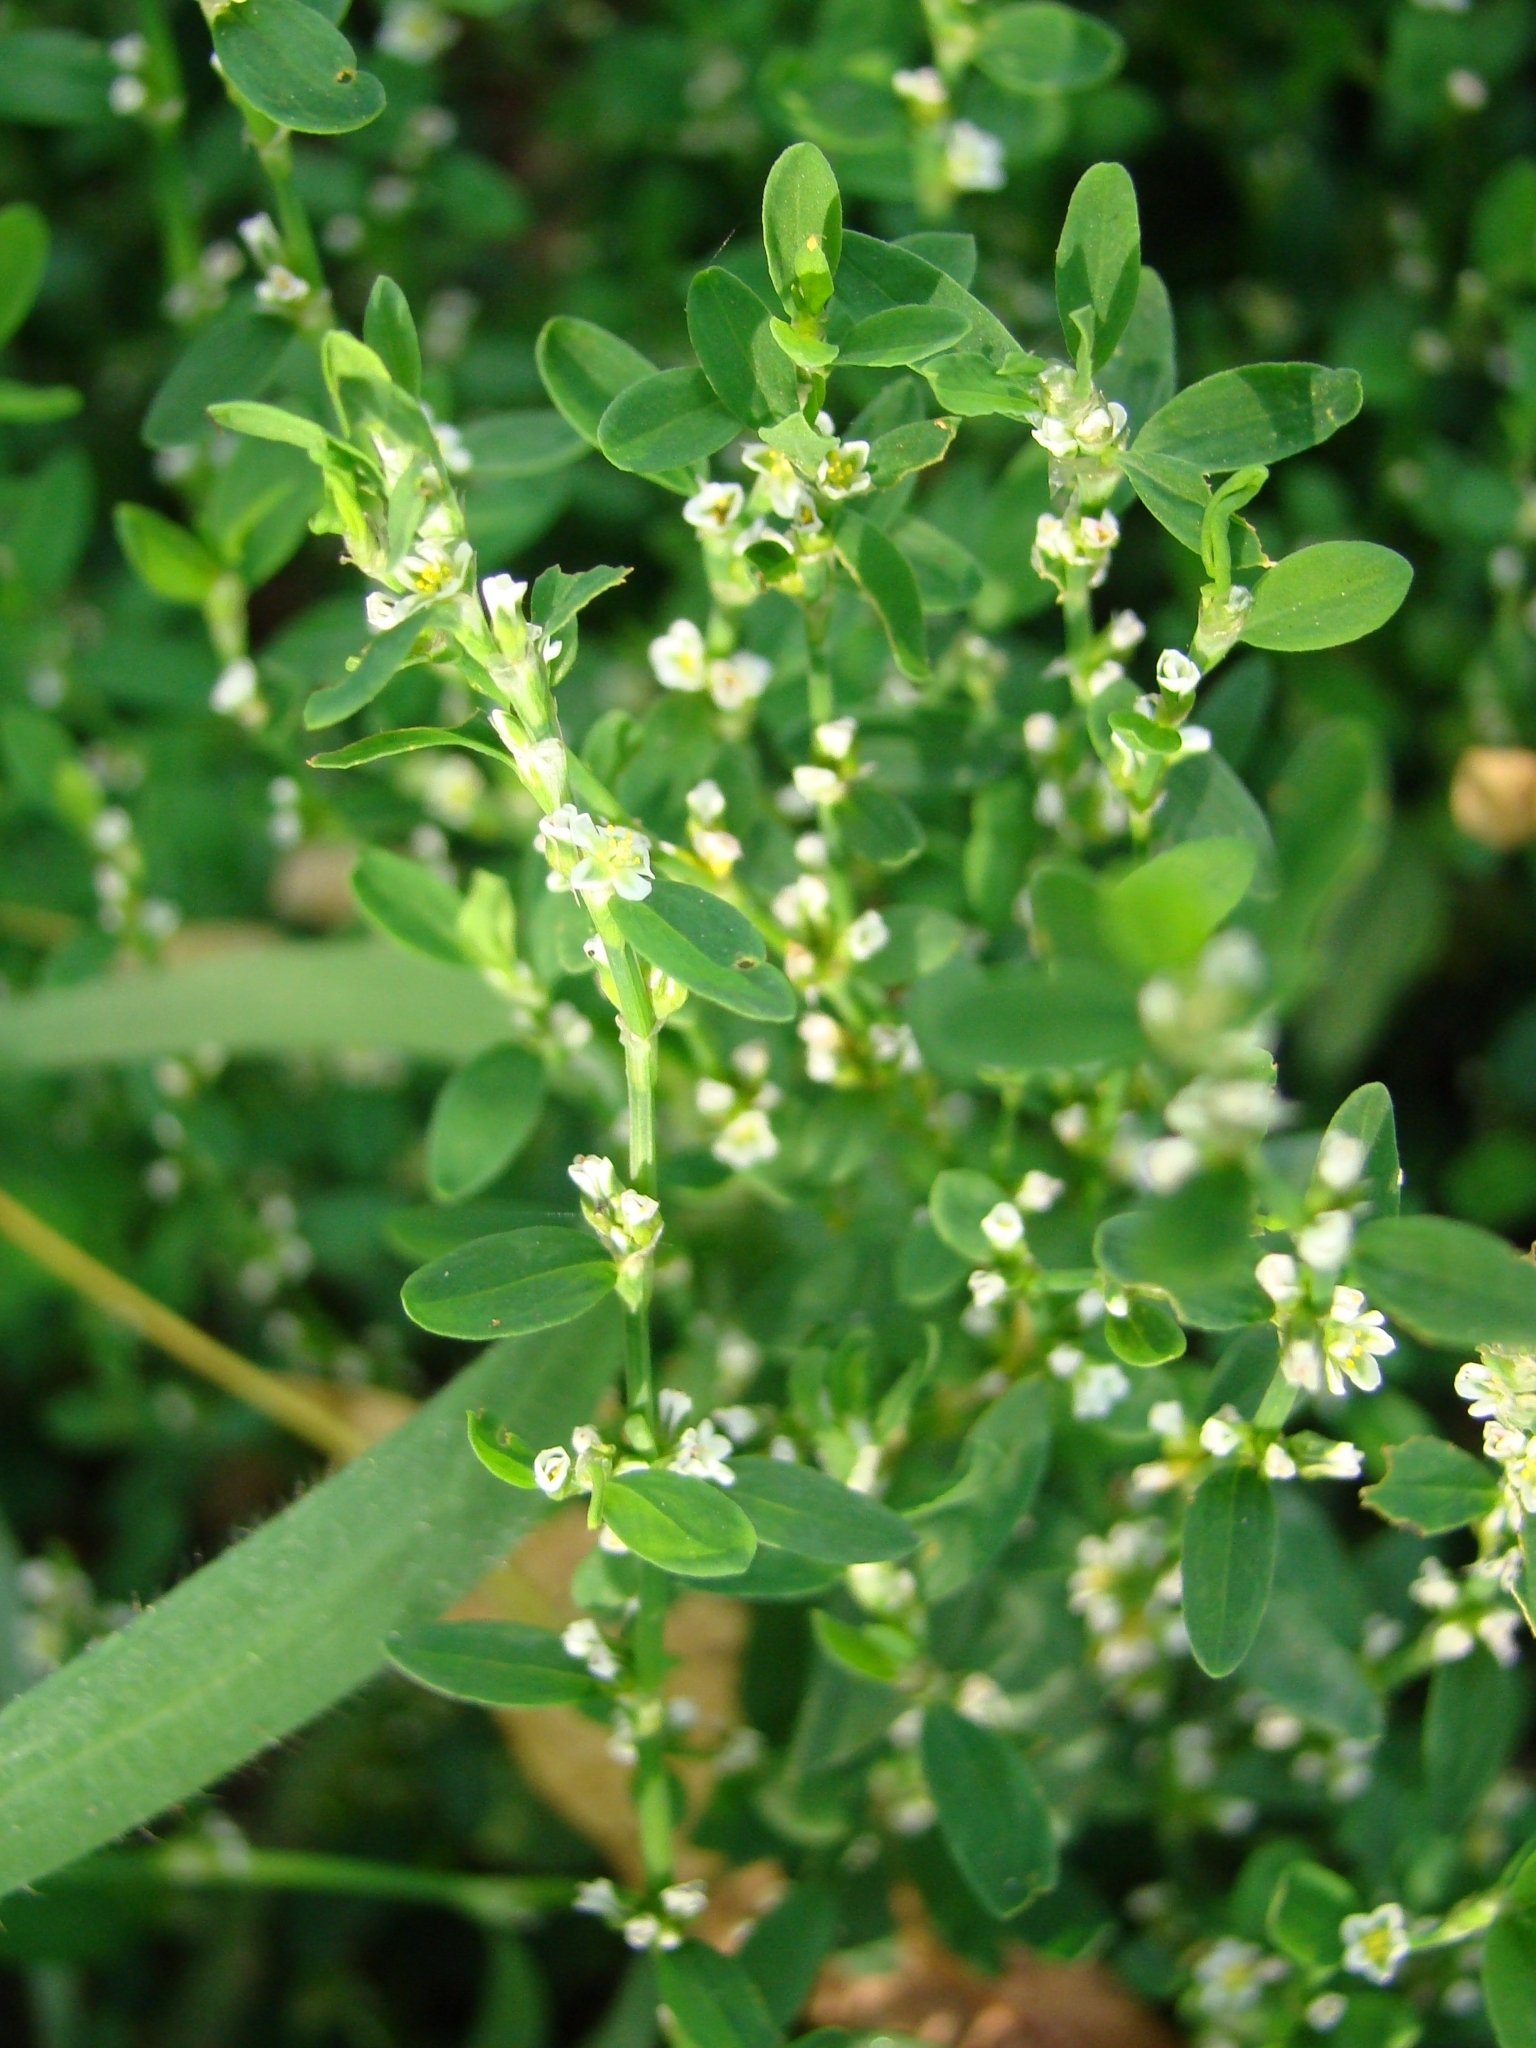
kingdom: Plantae
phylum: Tracheophyta
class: Magnoliopsida
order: Caryophyllales
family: Polygonaceae
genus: Polygonum
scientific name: Polygonum
